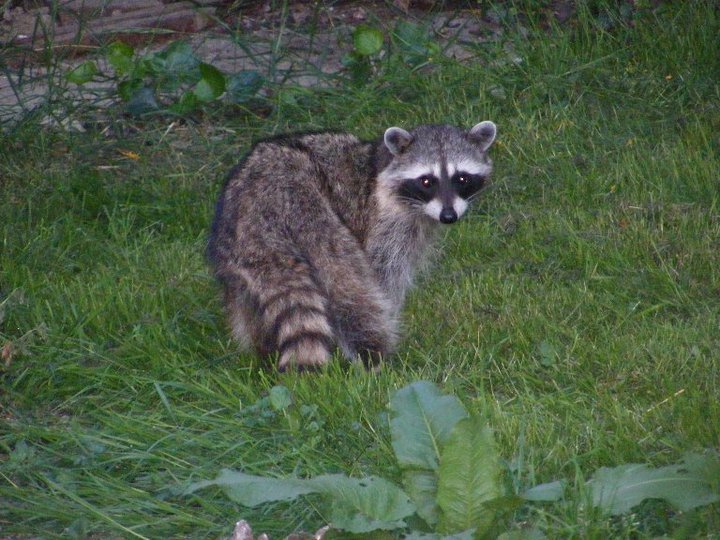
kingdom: Animalia
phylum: Chordata
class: Mammalia
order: Carnivora
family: Procyonidae
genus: Procyon
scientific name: Procyon lotor
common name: Raccoon
